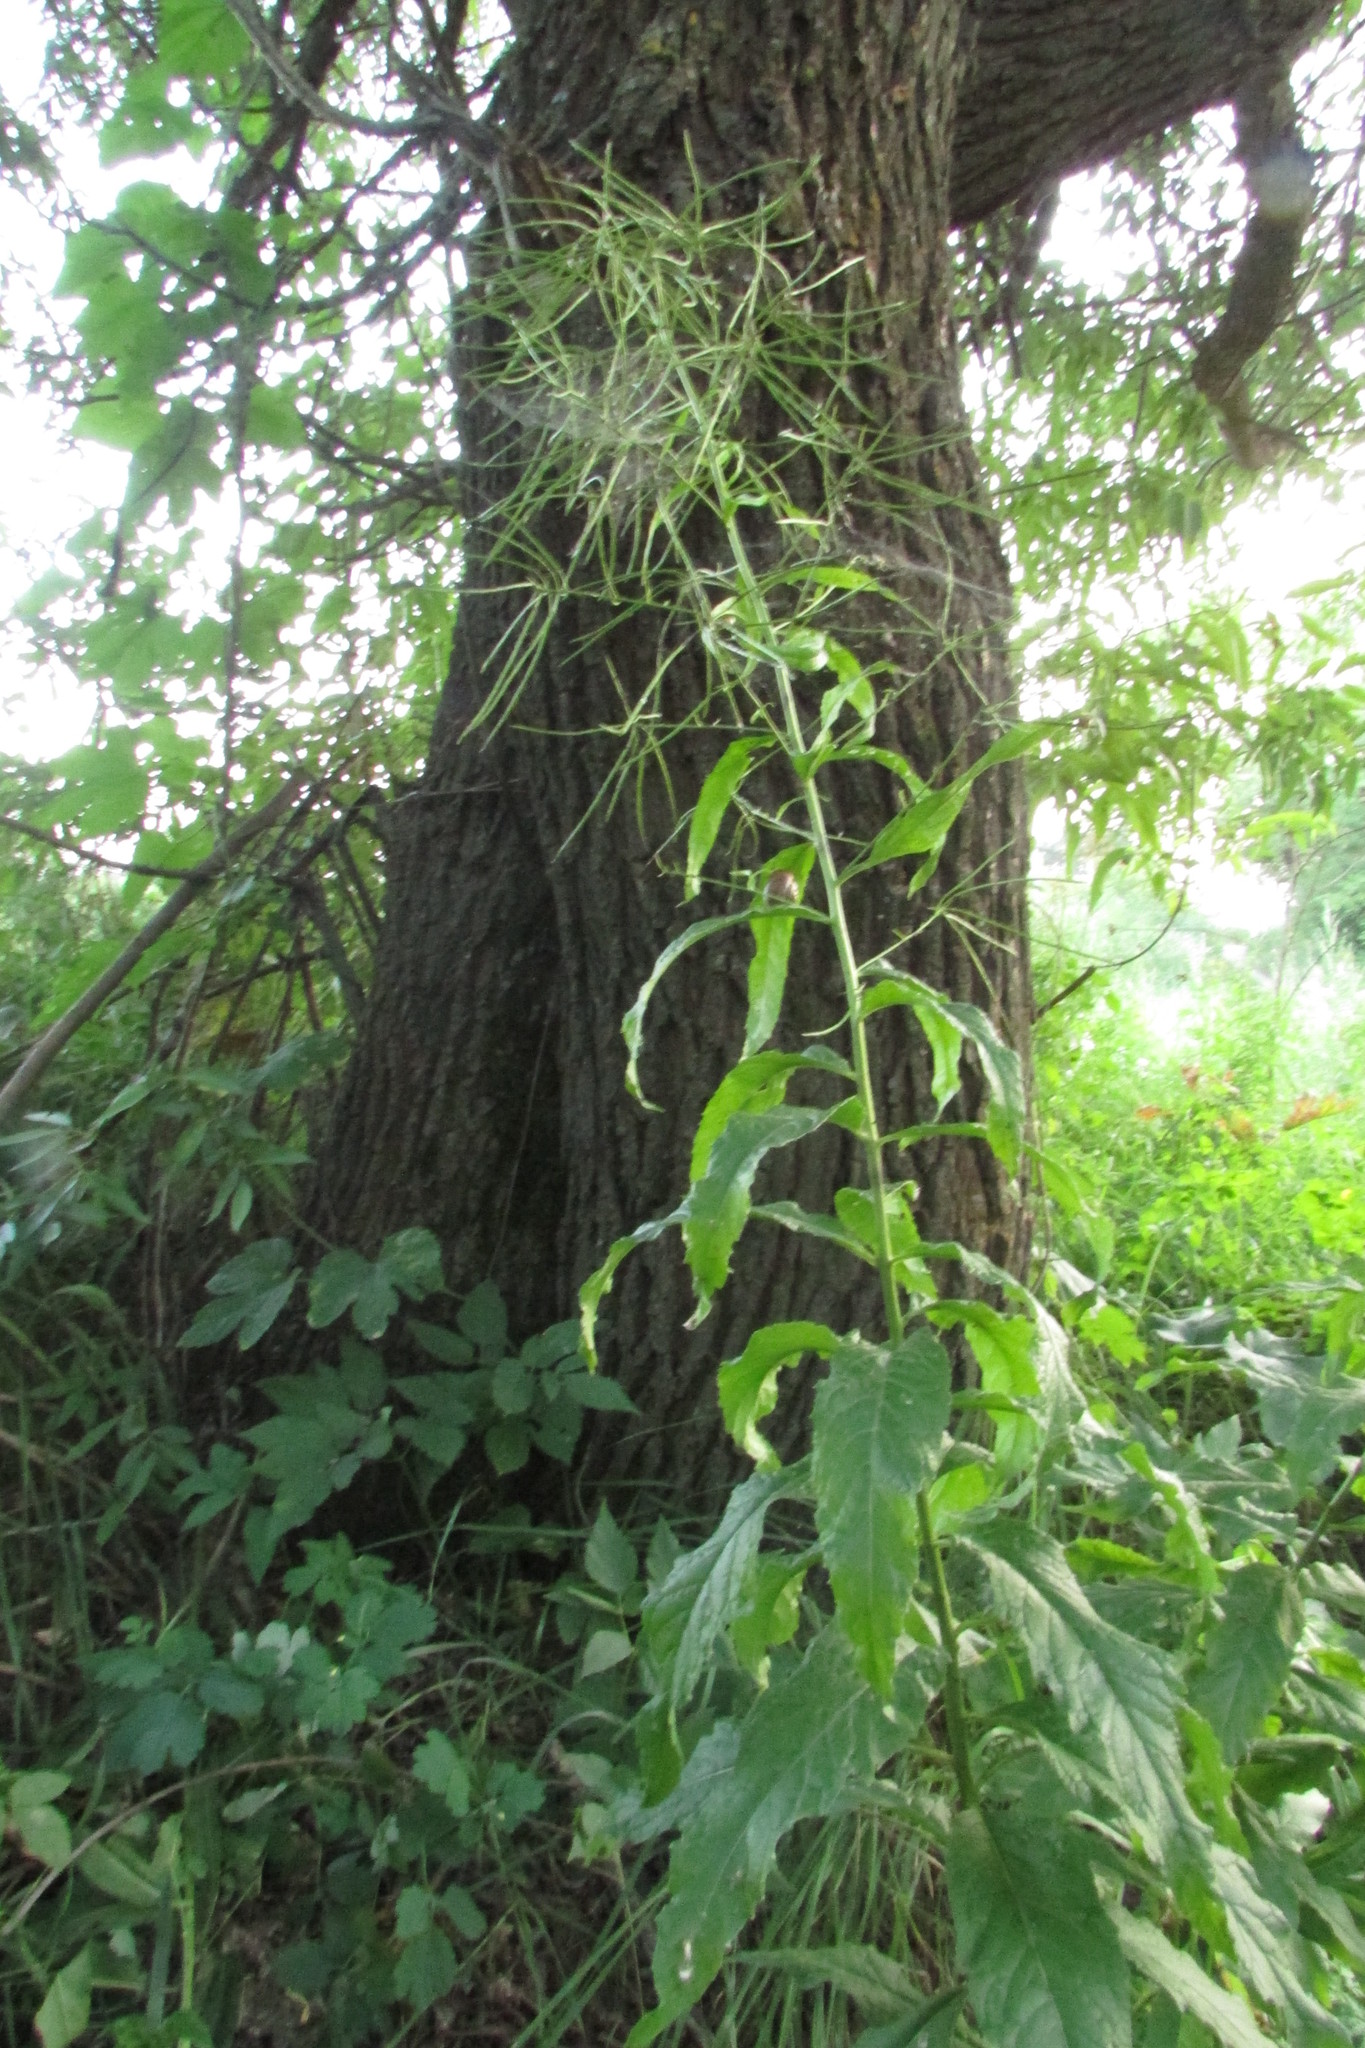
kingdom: Plantae
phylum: Tracheophyta
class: Magnoliopsida
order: Brassicales
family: Brassicaceae
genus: Sisymbrium
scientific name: Sisymbrium strictissimum
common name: Perennial rocket
